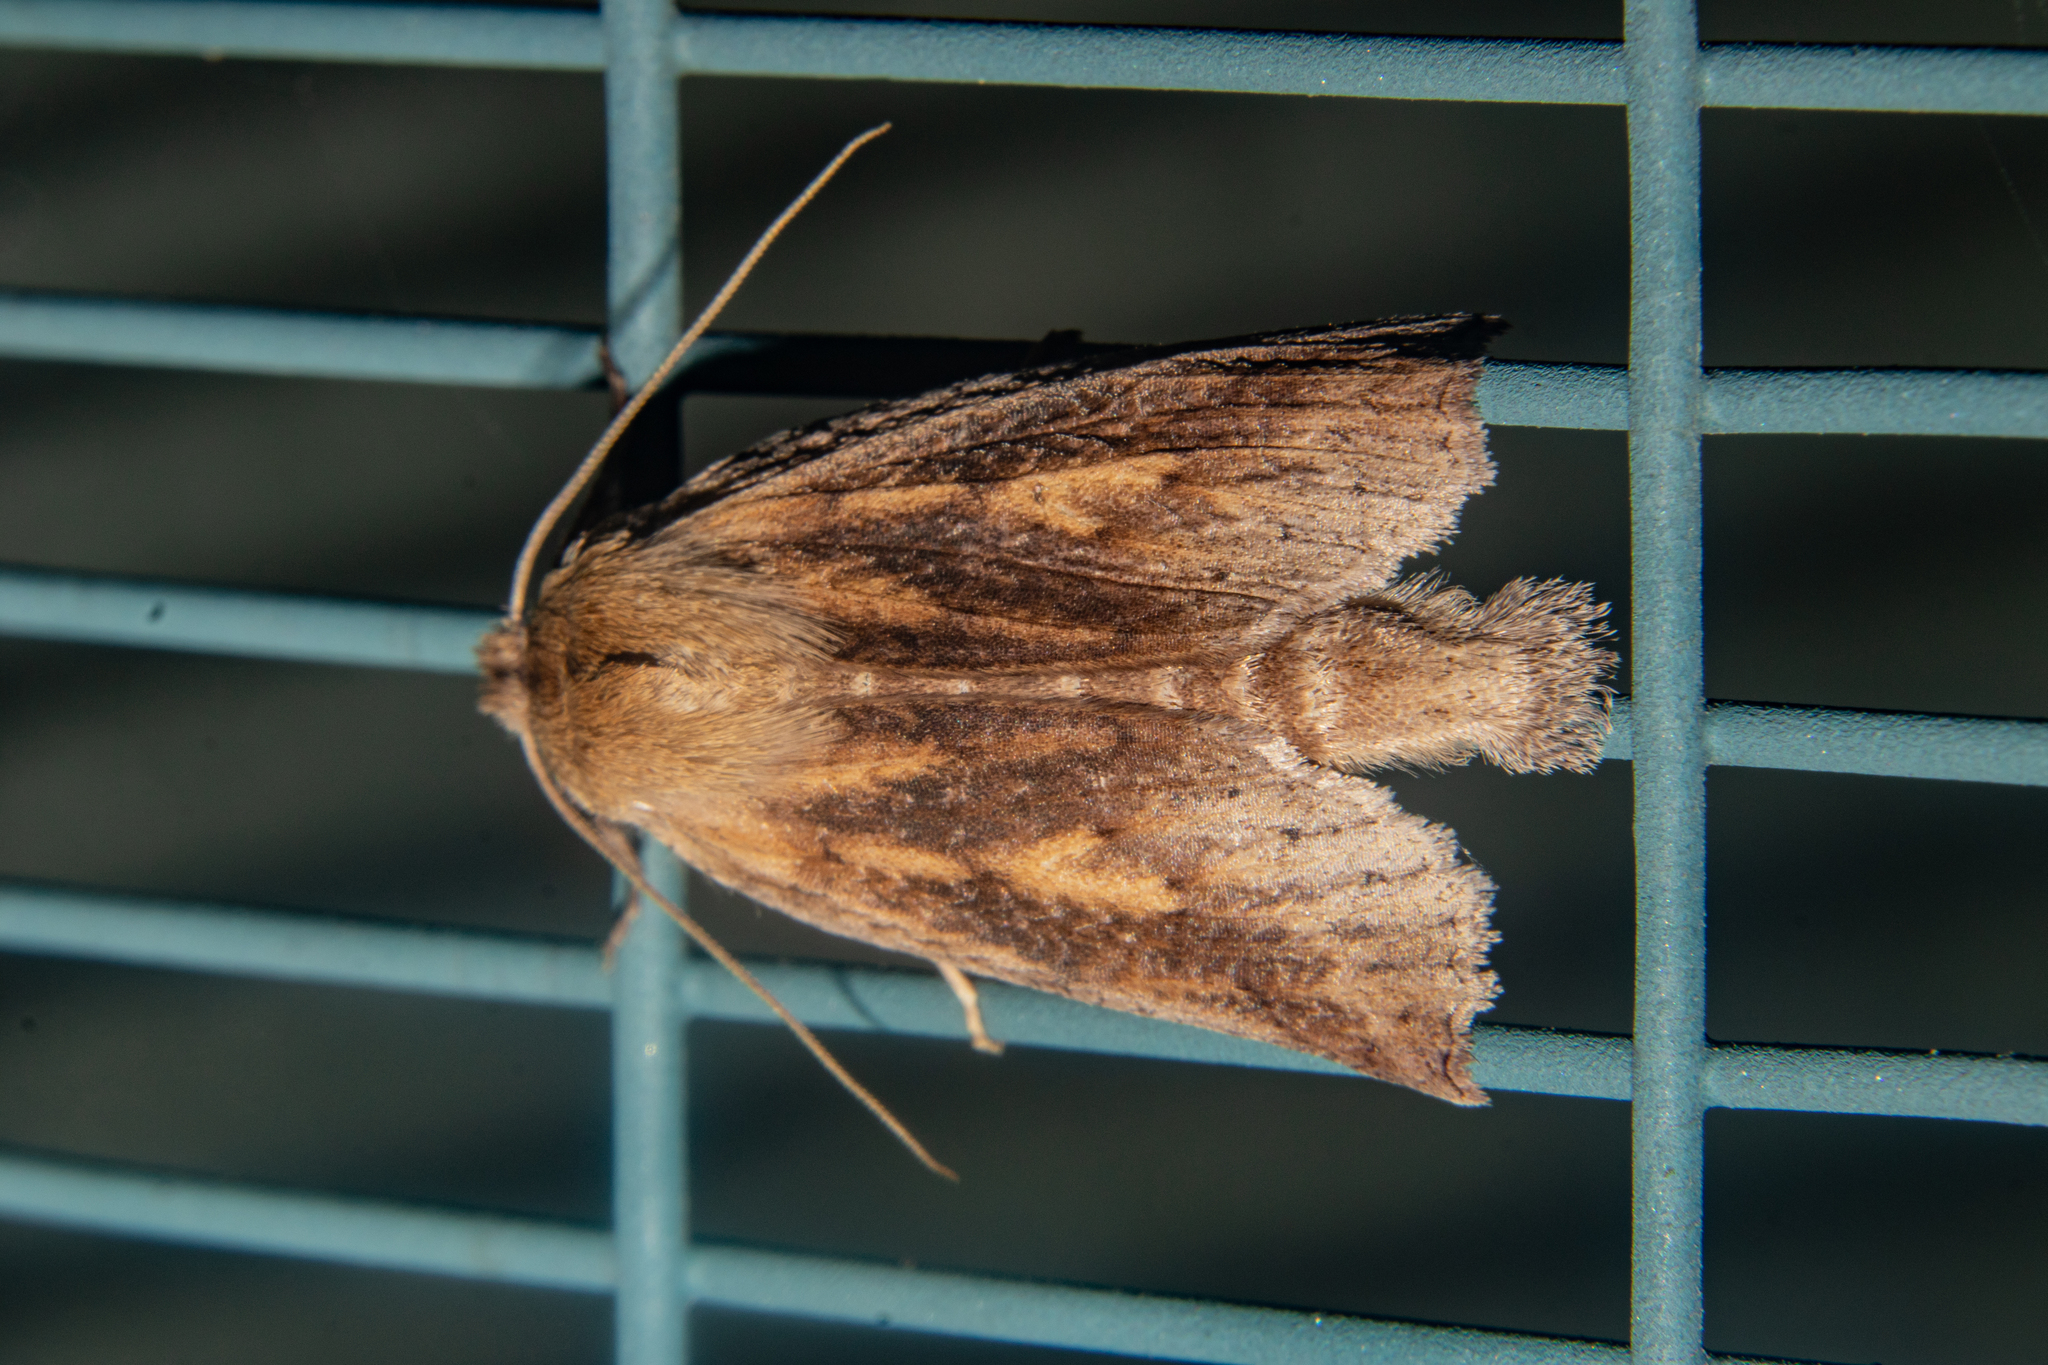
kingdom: Animalia
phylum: Arthropoda
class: Insecta
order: Lepidoptera
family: Geometridae
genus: Declana
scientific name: Declana leptomera
